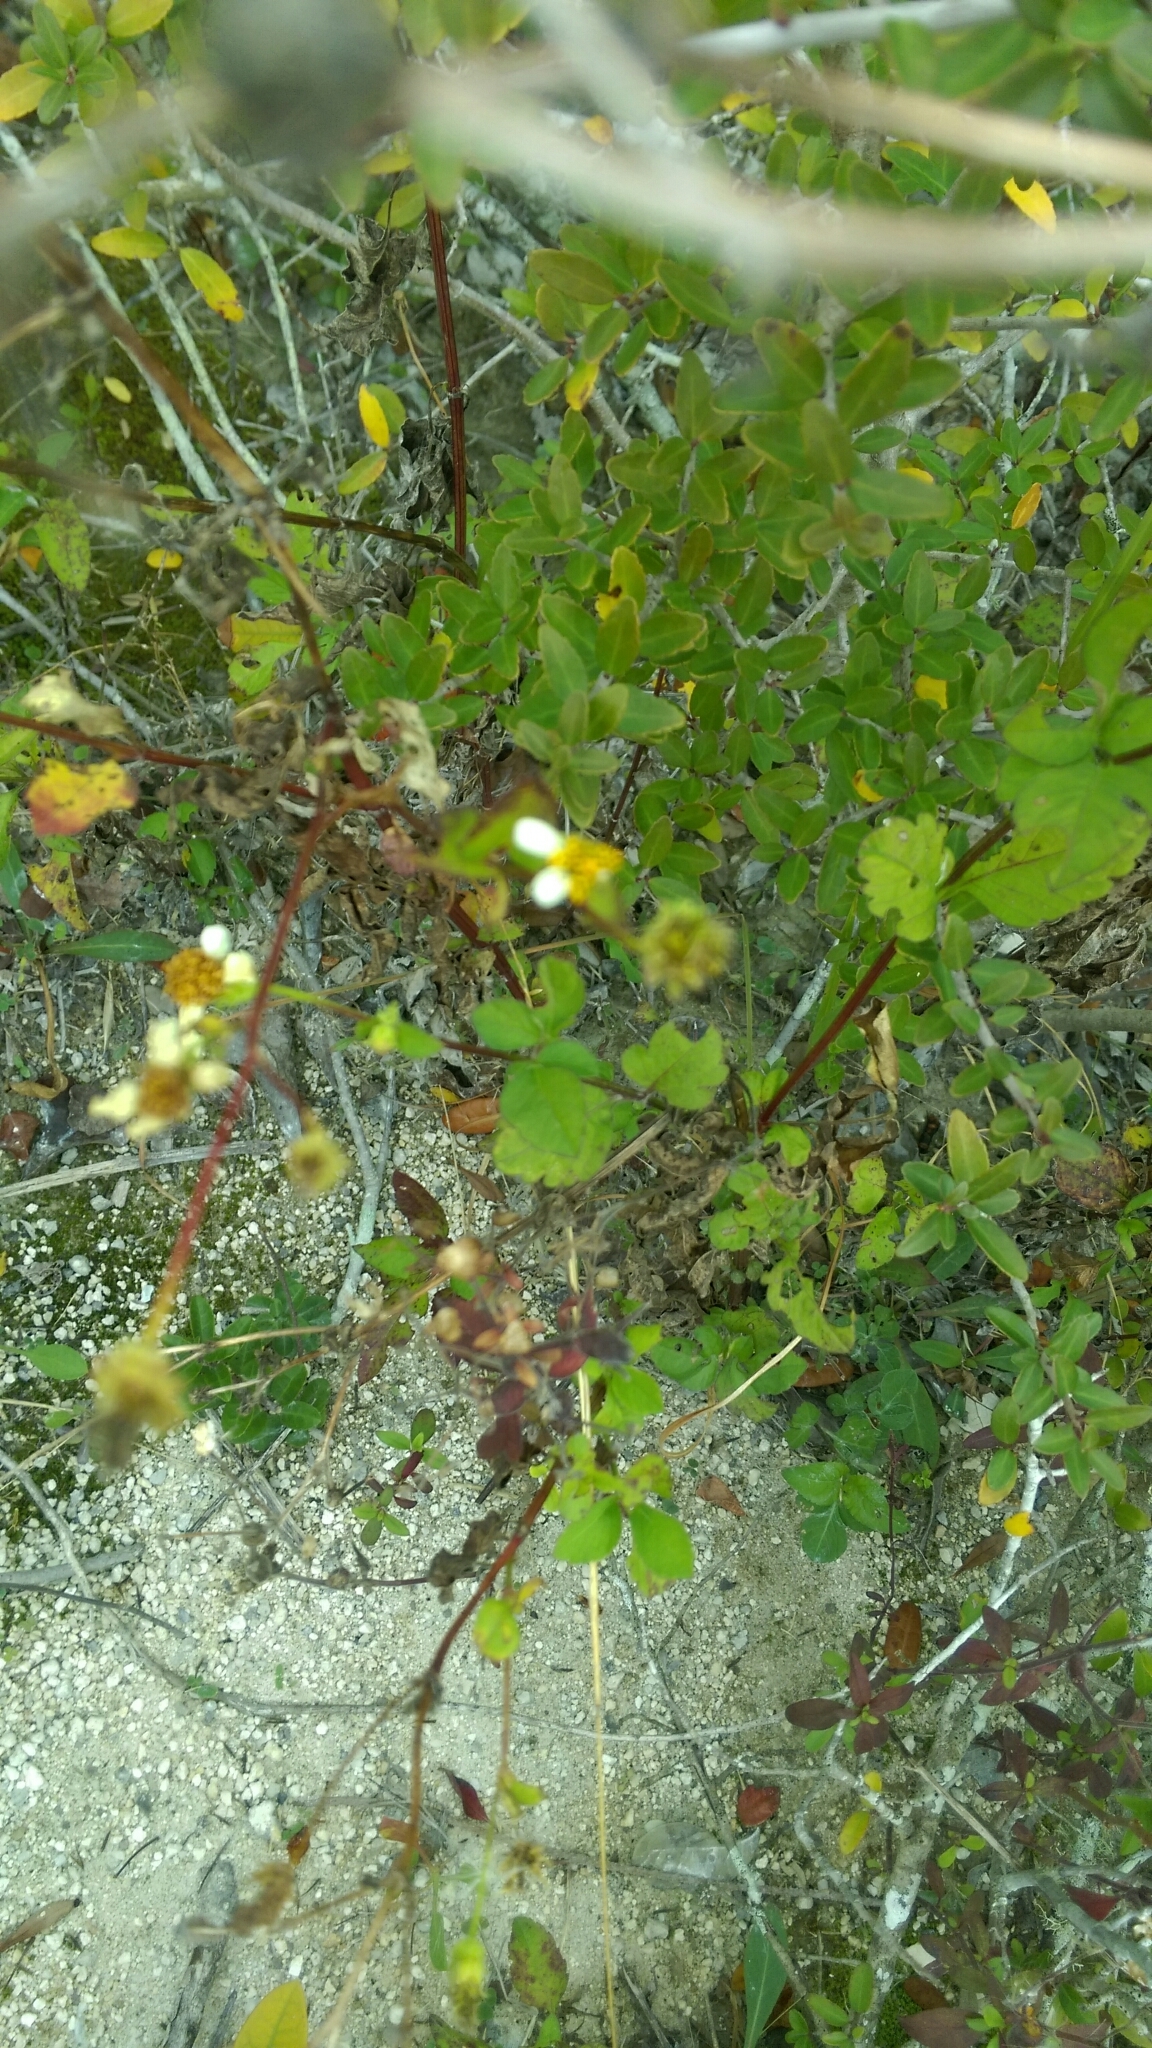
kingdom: Plantae
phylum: Tracheophyta
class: Magnoliopsida
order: Asterales
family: Asteraceae
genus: Bidens
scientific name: Bidens alba
